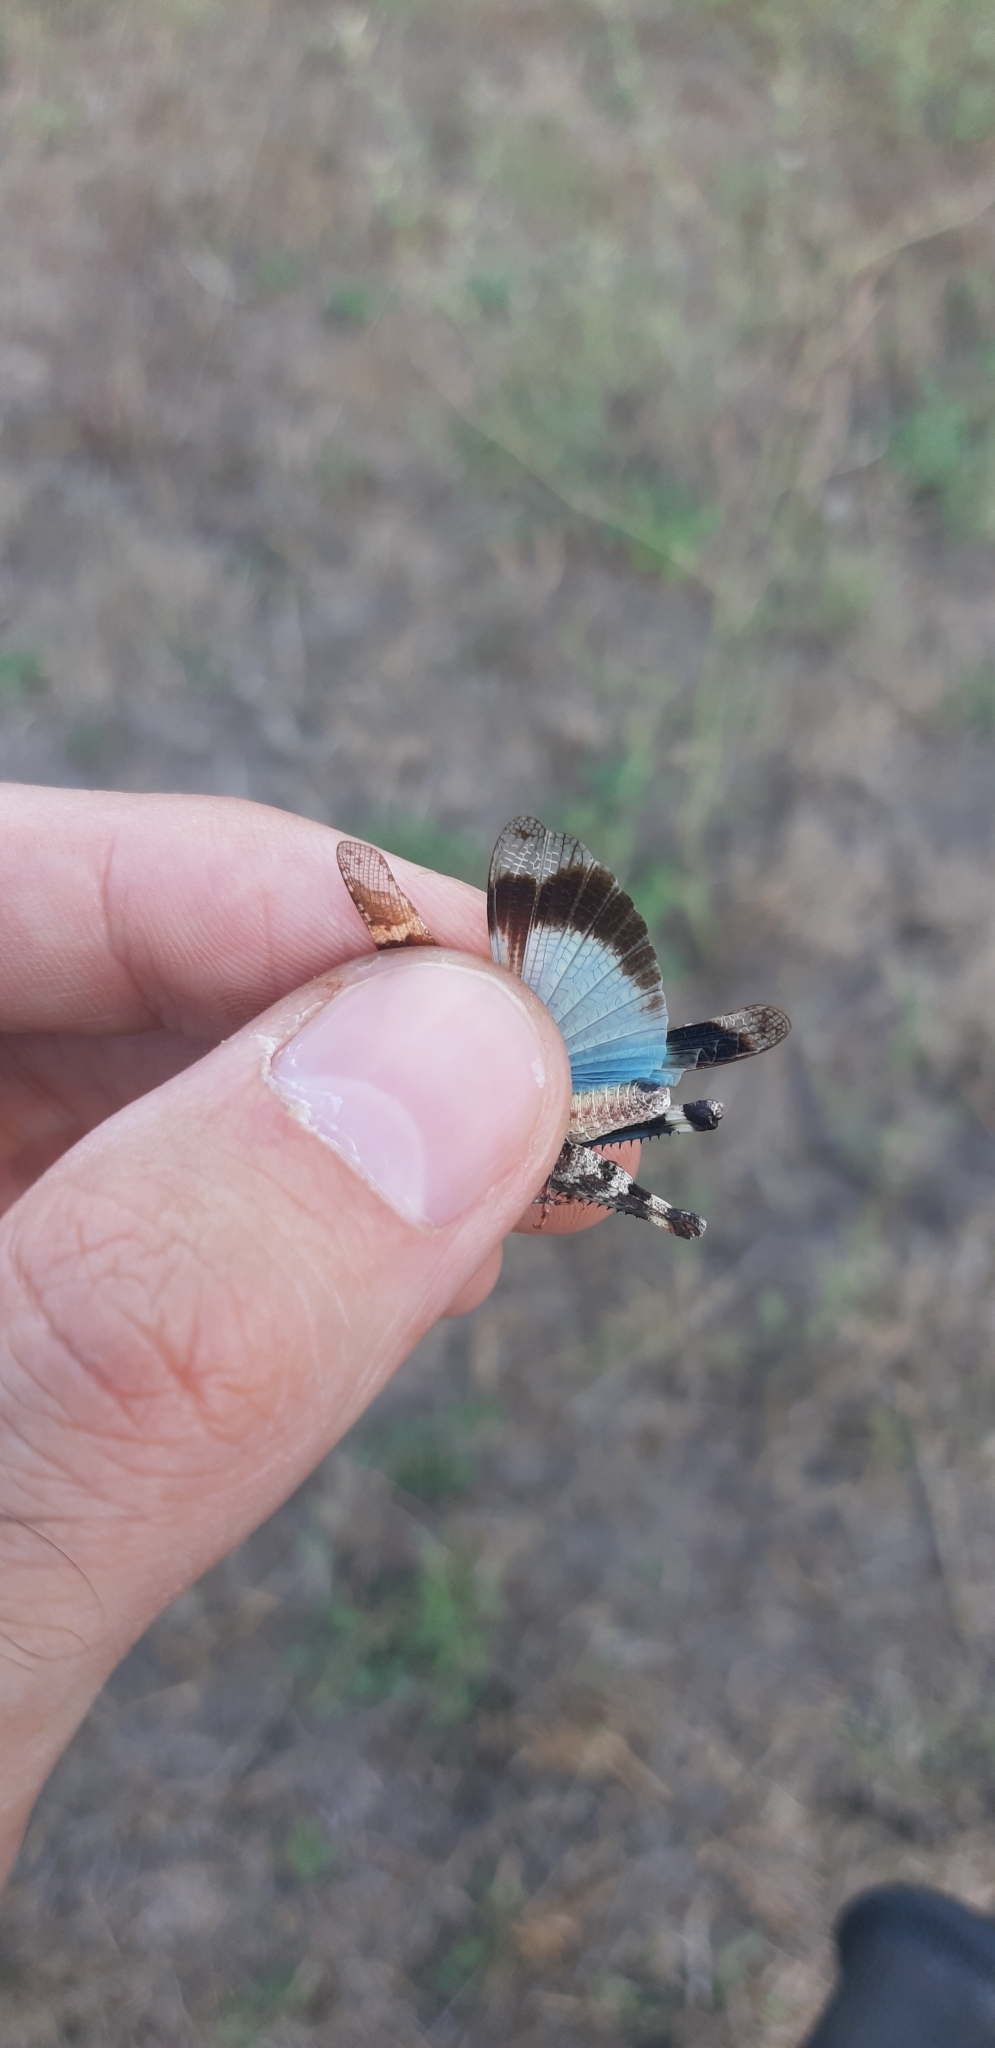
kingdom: Animalia
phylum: Arthropoda
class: Insecta
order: Orthoptera
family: Acrididae
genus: Oedipoda
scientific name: Oedipoda caerulescens
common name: Blue-winged grasshopper
